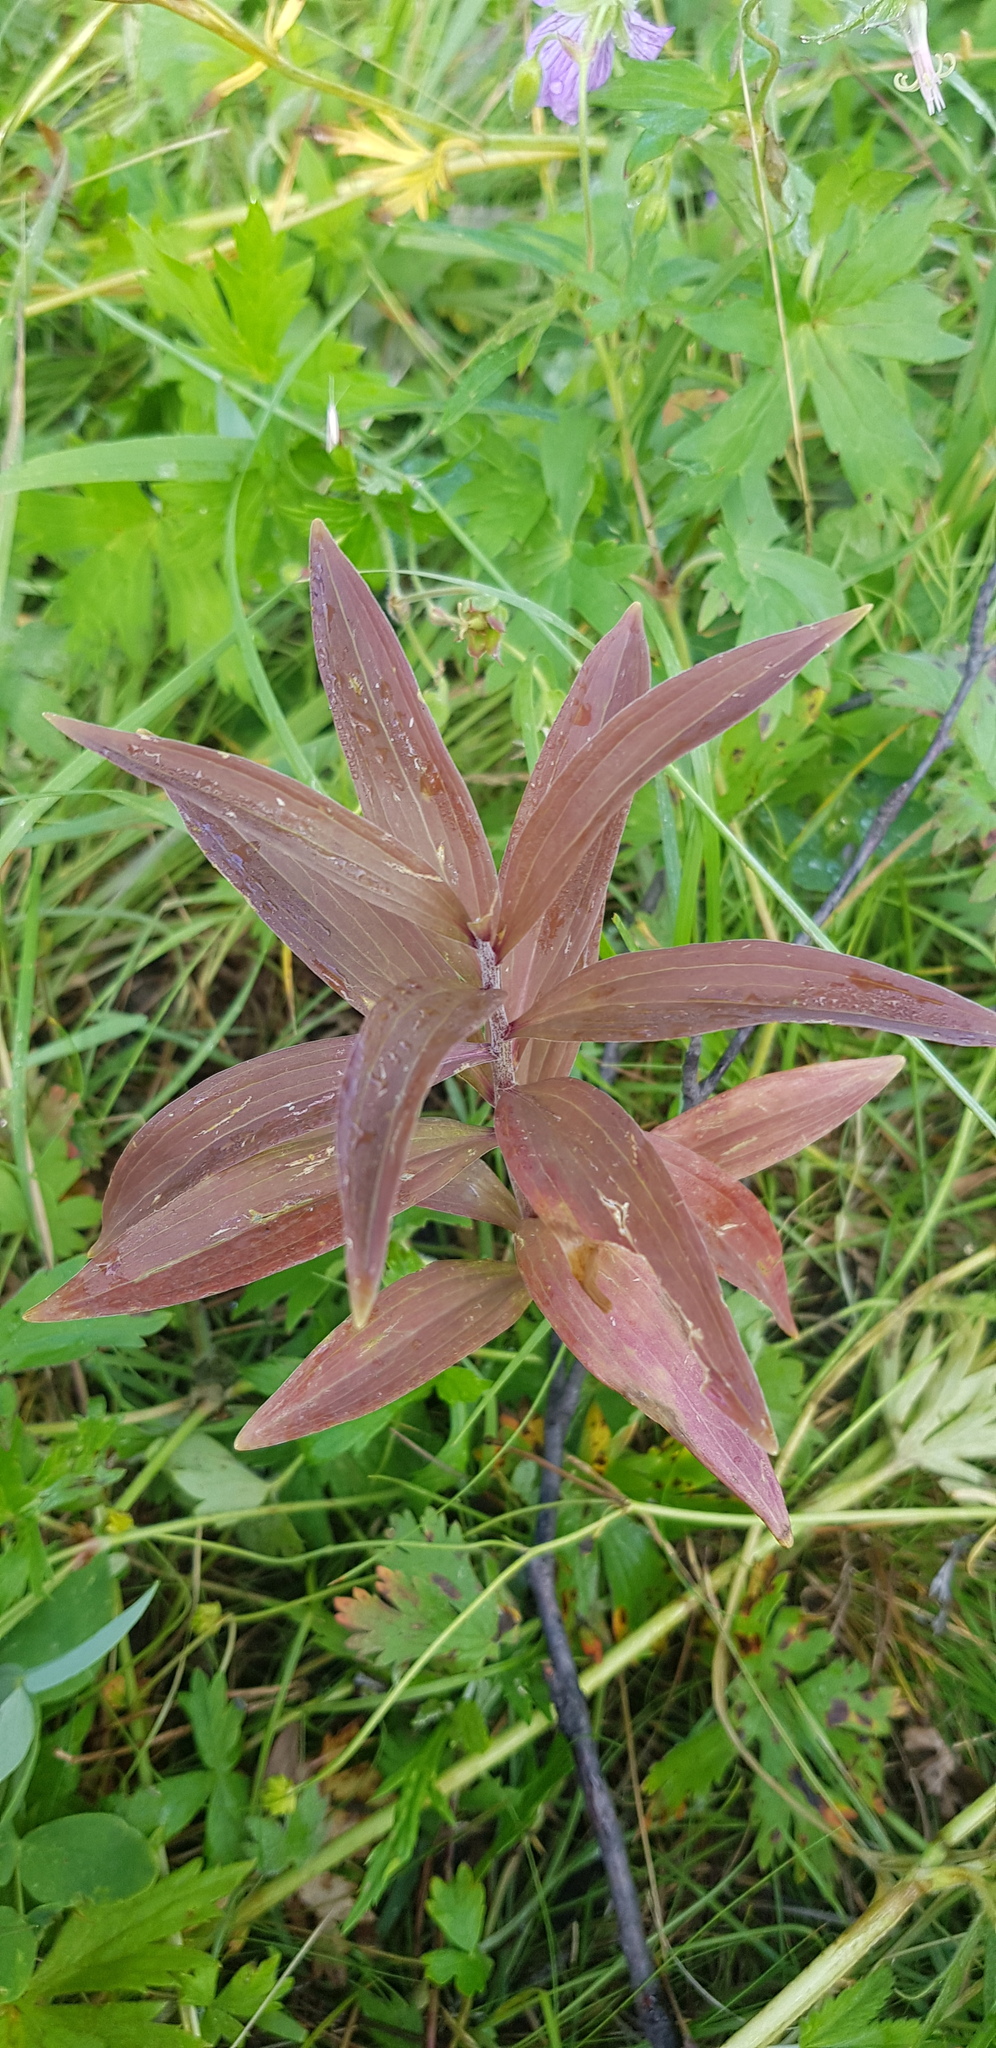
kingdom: Plantae
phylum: Tracheophyta
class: Liliopsida
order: Liliales
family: Liliaceae
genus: Lilium
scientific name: Lilium martagon
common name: Martagon lily
